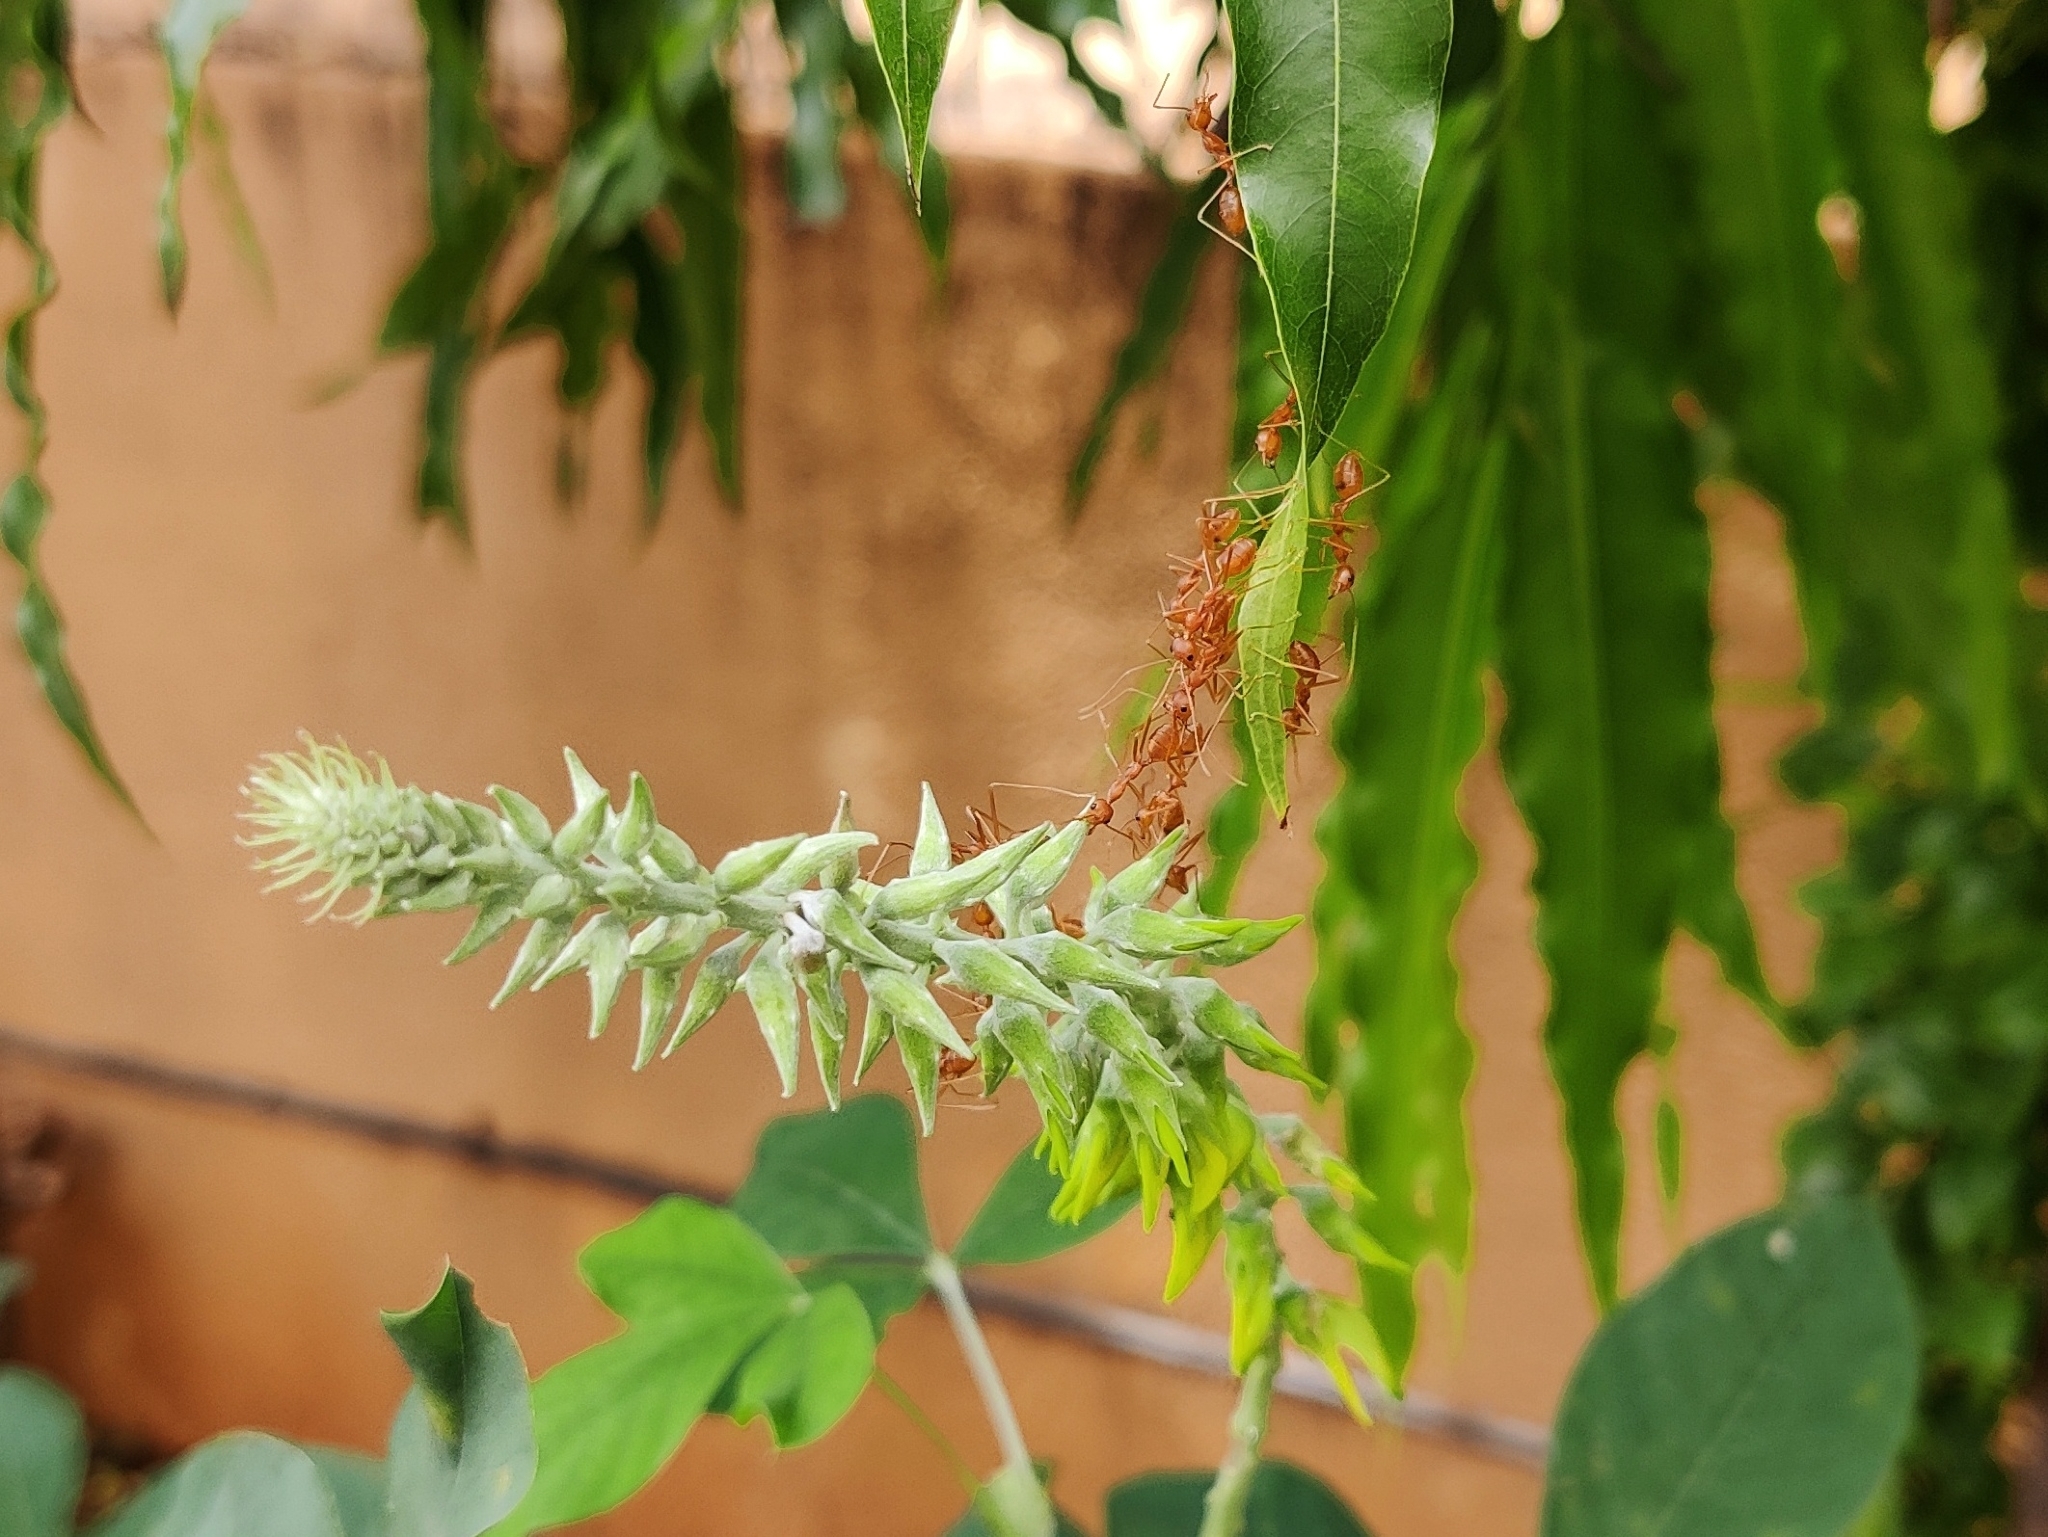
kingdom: Animalia
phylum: Arthropoda
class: Insecta
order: Hymenoptera
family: Formicidae
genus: Oecophylla
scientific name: Oecophylla smaragdina
